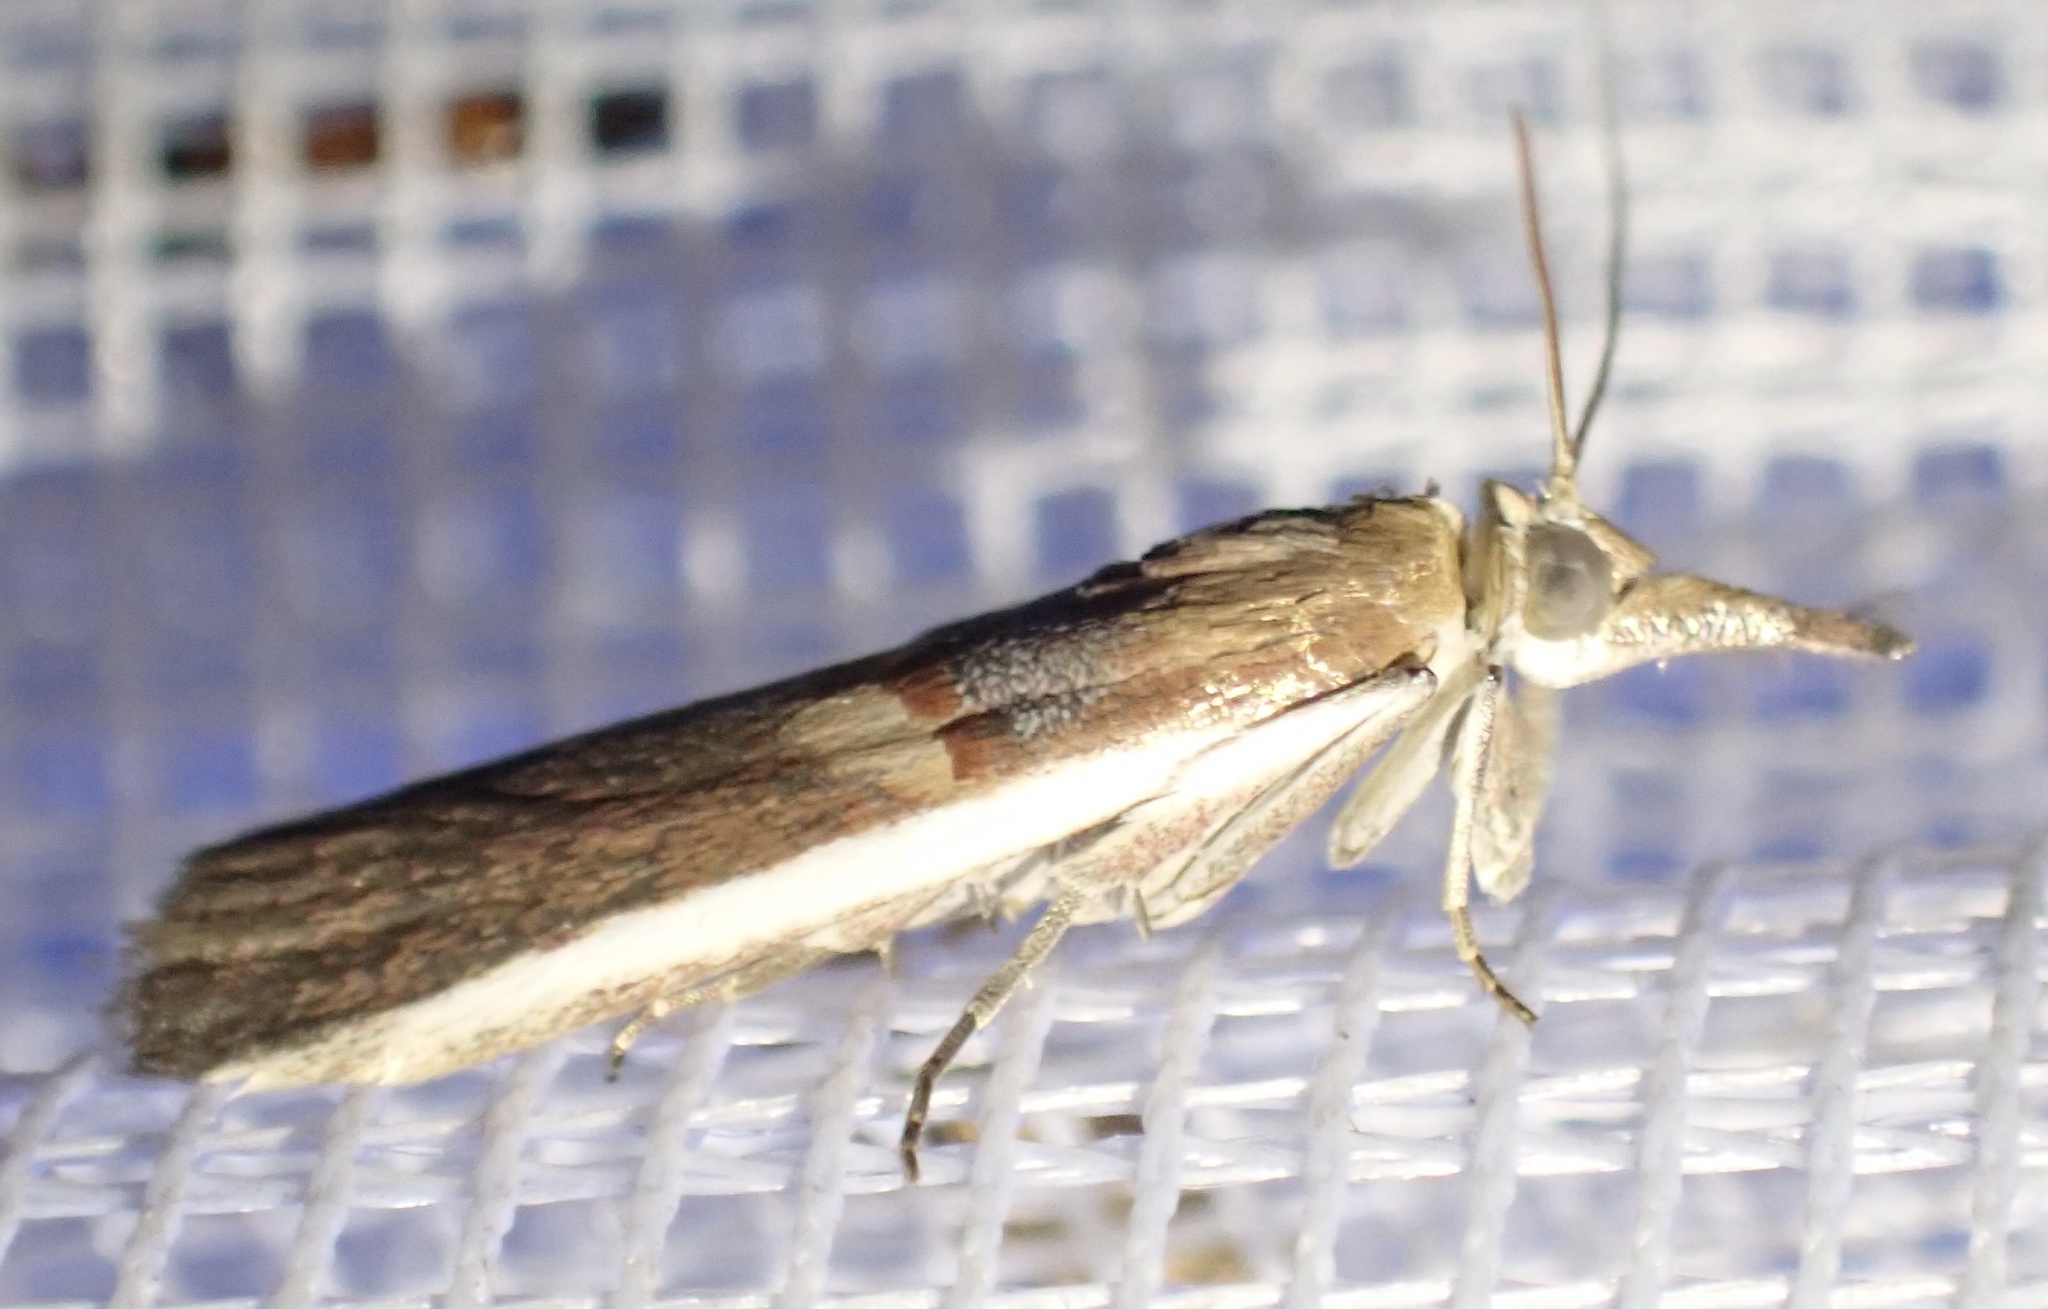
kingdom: Animalia
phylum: Arthropoda
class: Insecta
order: Lepidoptera
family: Pyralidae
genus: Etiella
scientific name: Etiella zinckenella
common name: Gold-banded etiella moth
